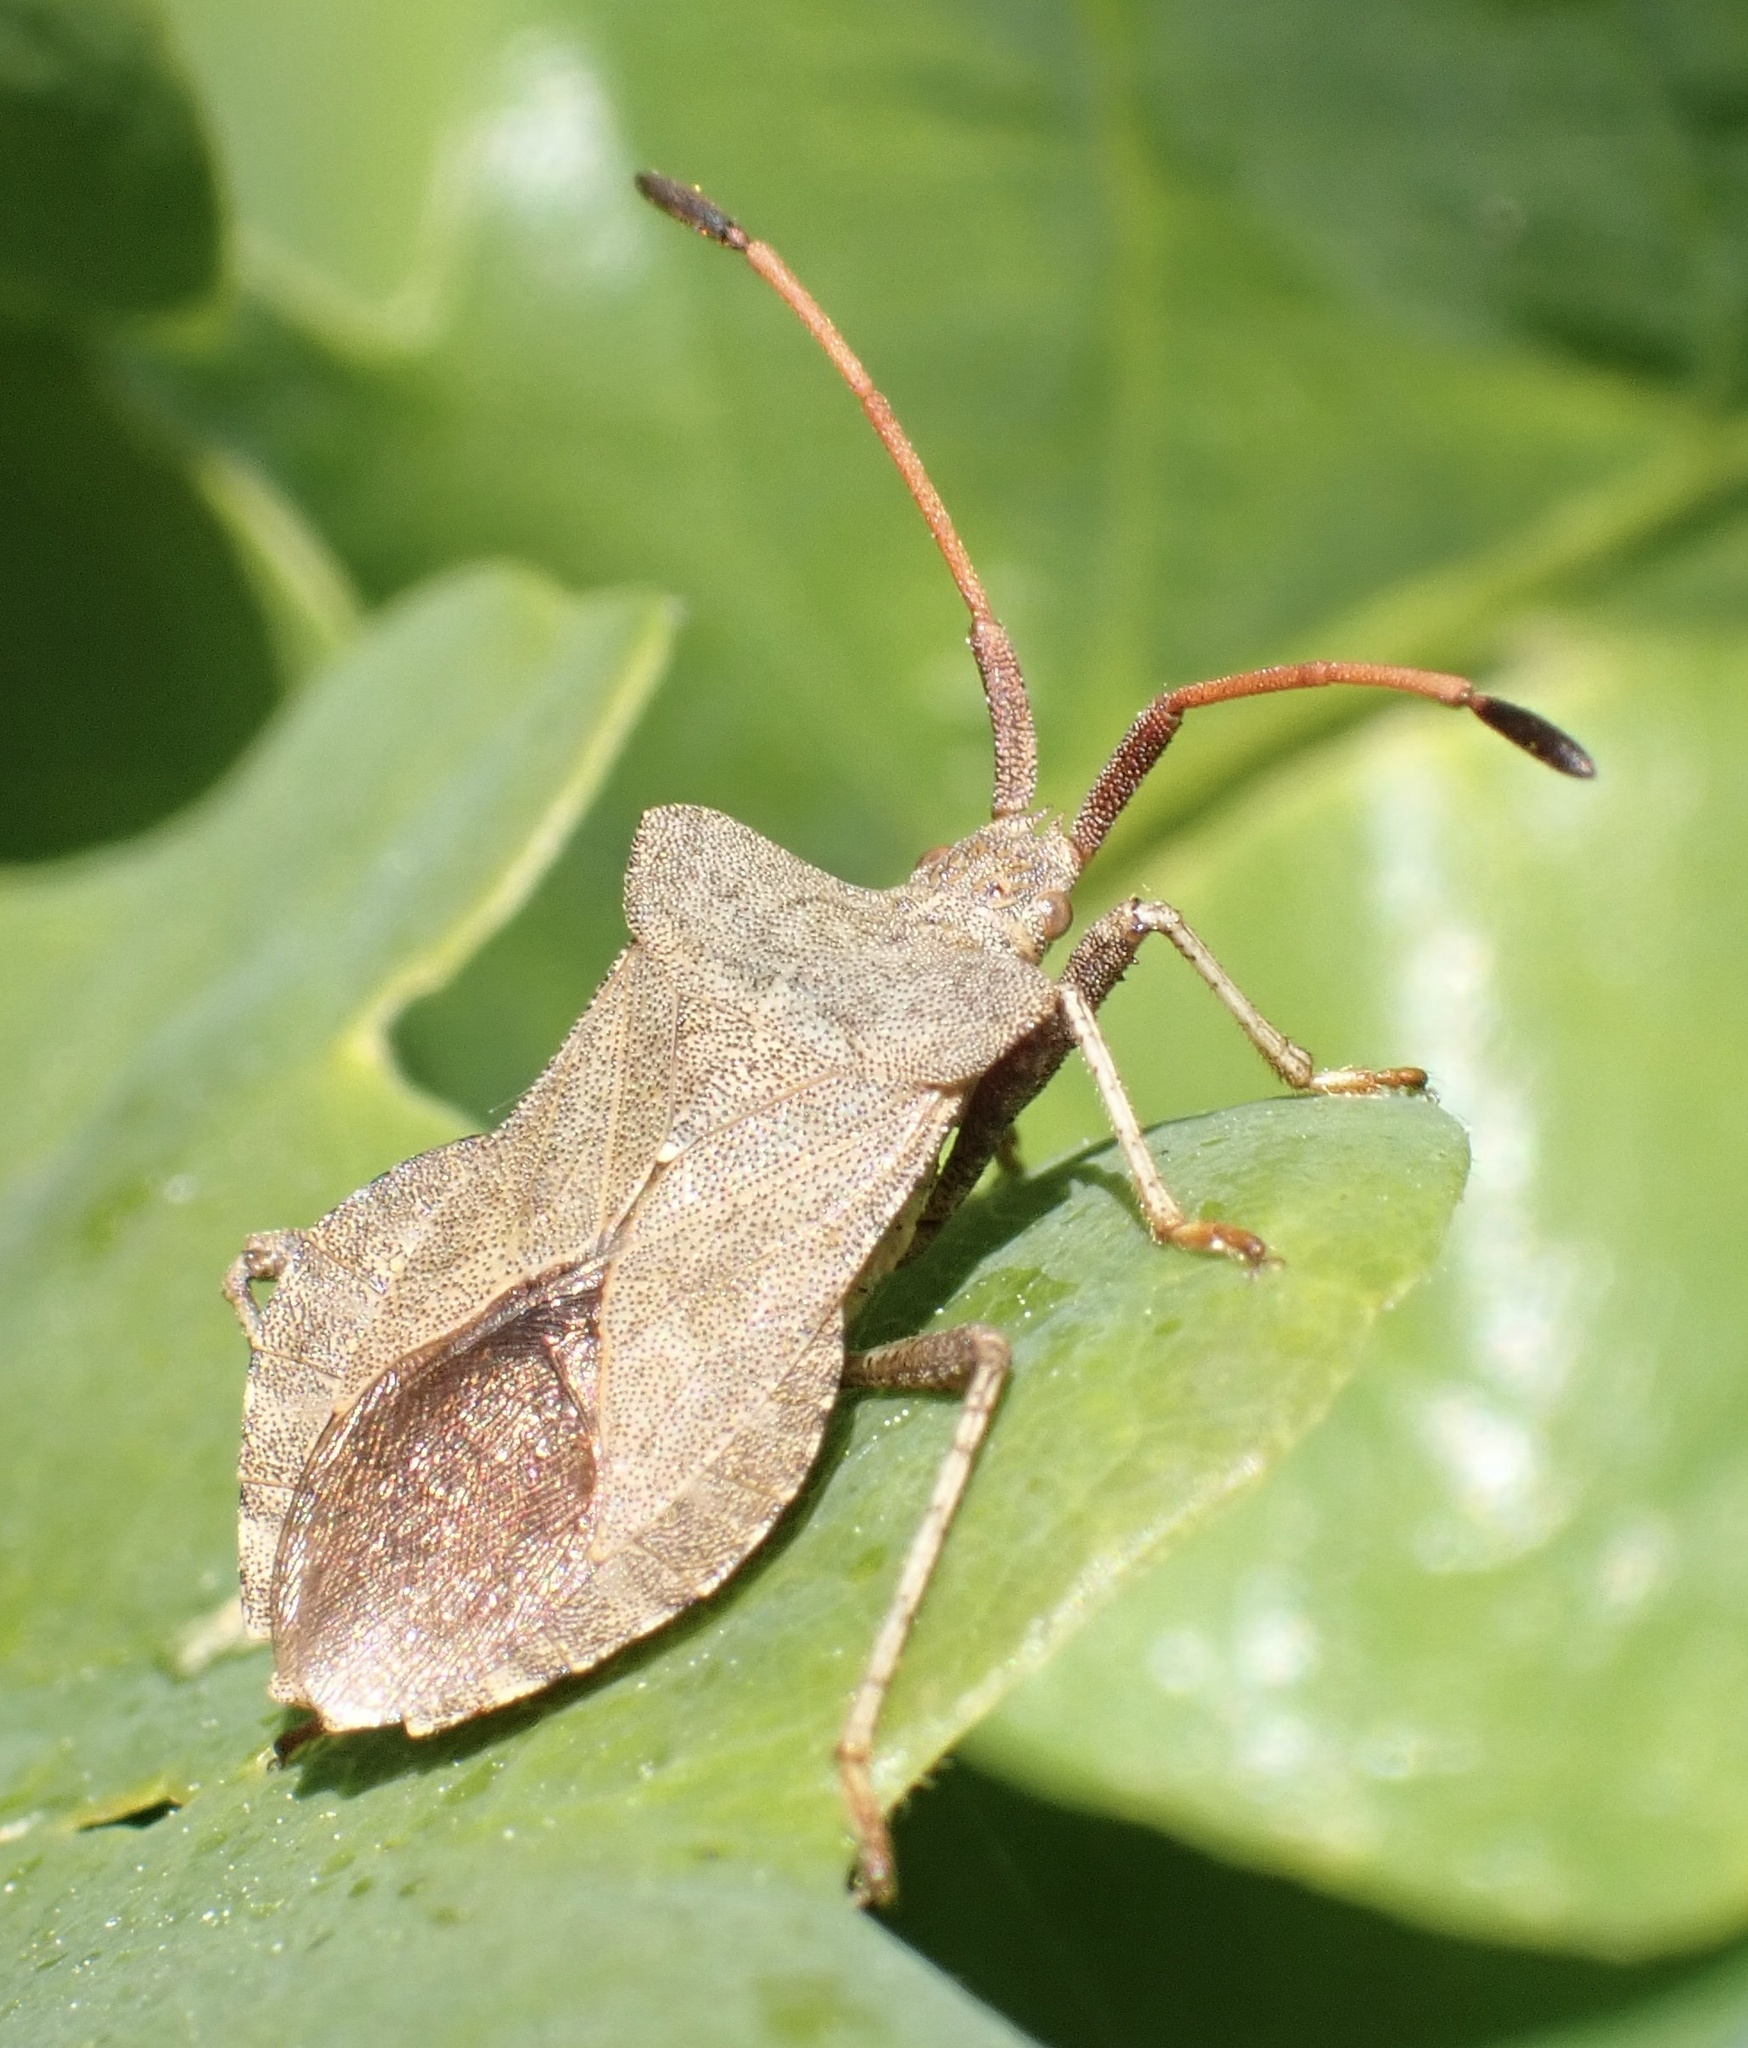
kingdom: Animalia
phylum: Arthropoda
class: Insecta
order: Hemiptera
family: Coreidae
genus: Coreus
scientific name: Coreus marginatus
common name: Dock bug
